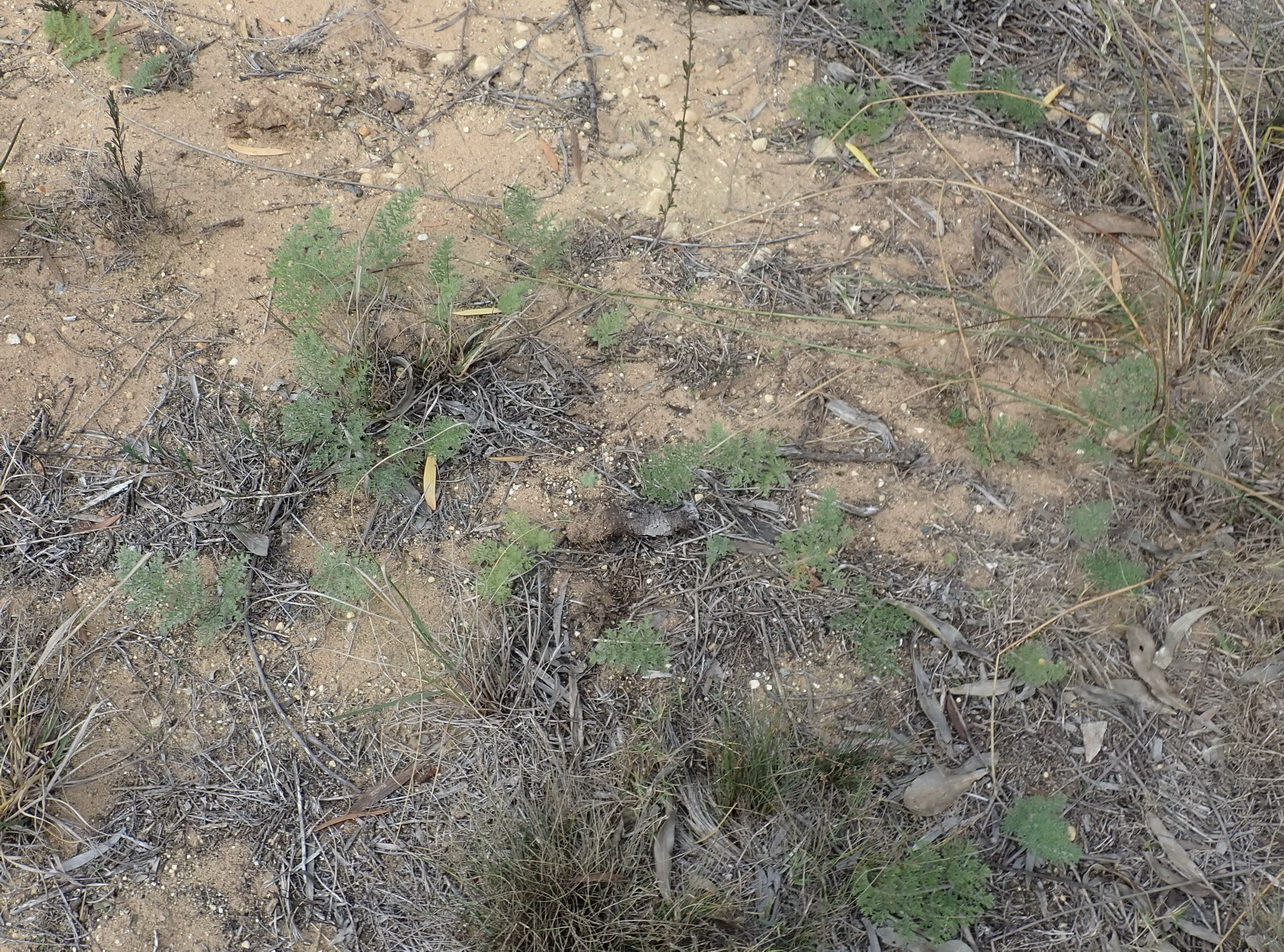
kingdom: Plantae
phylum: Tracheophyta
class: Magnoliopsida
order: Geraniales
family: Geraniaceae
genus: Pelargonium
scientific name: Pelargonium triste
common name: Night-scent pelargonium
